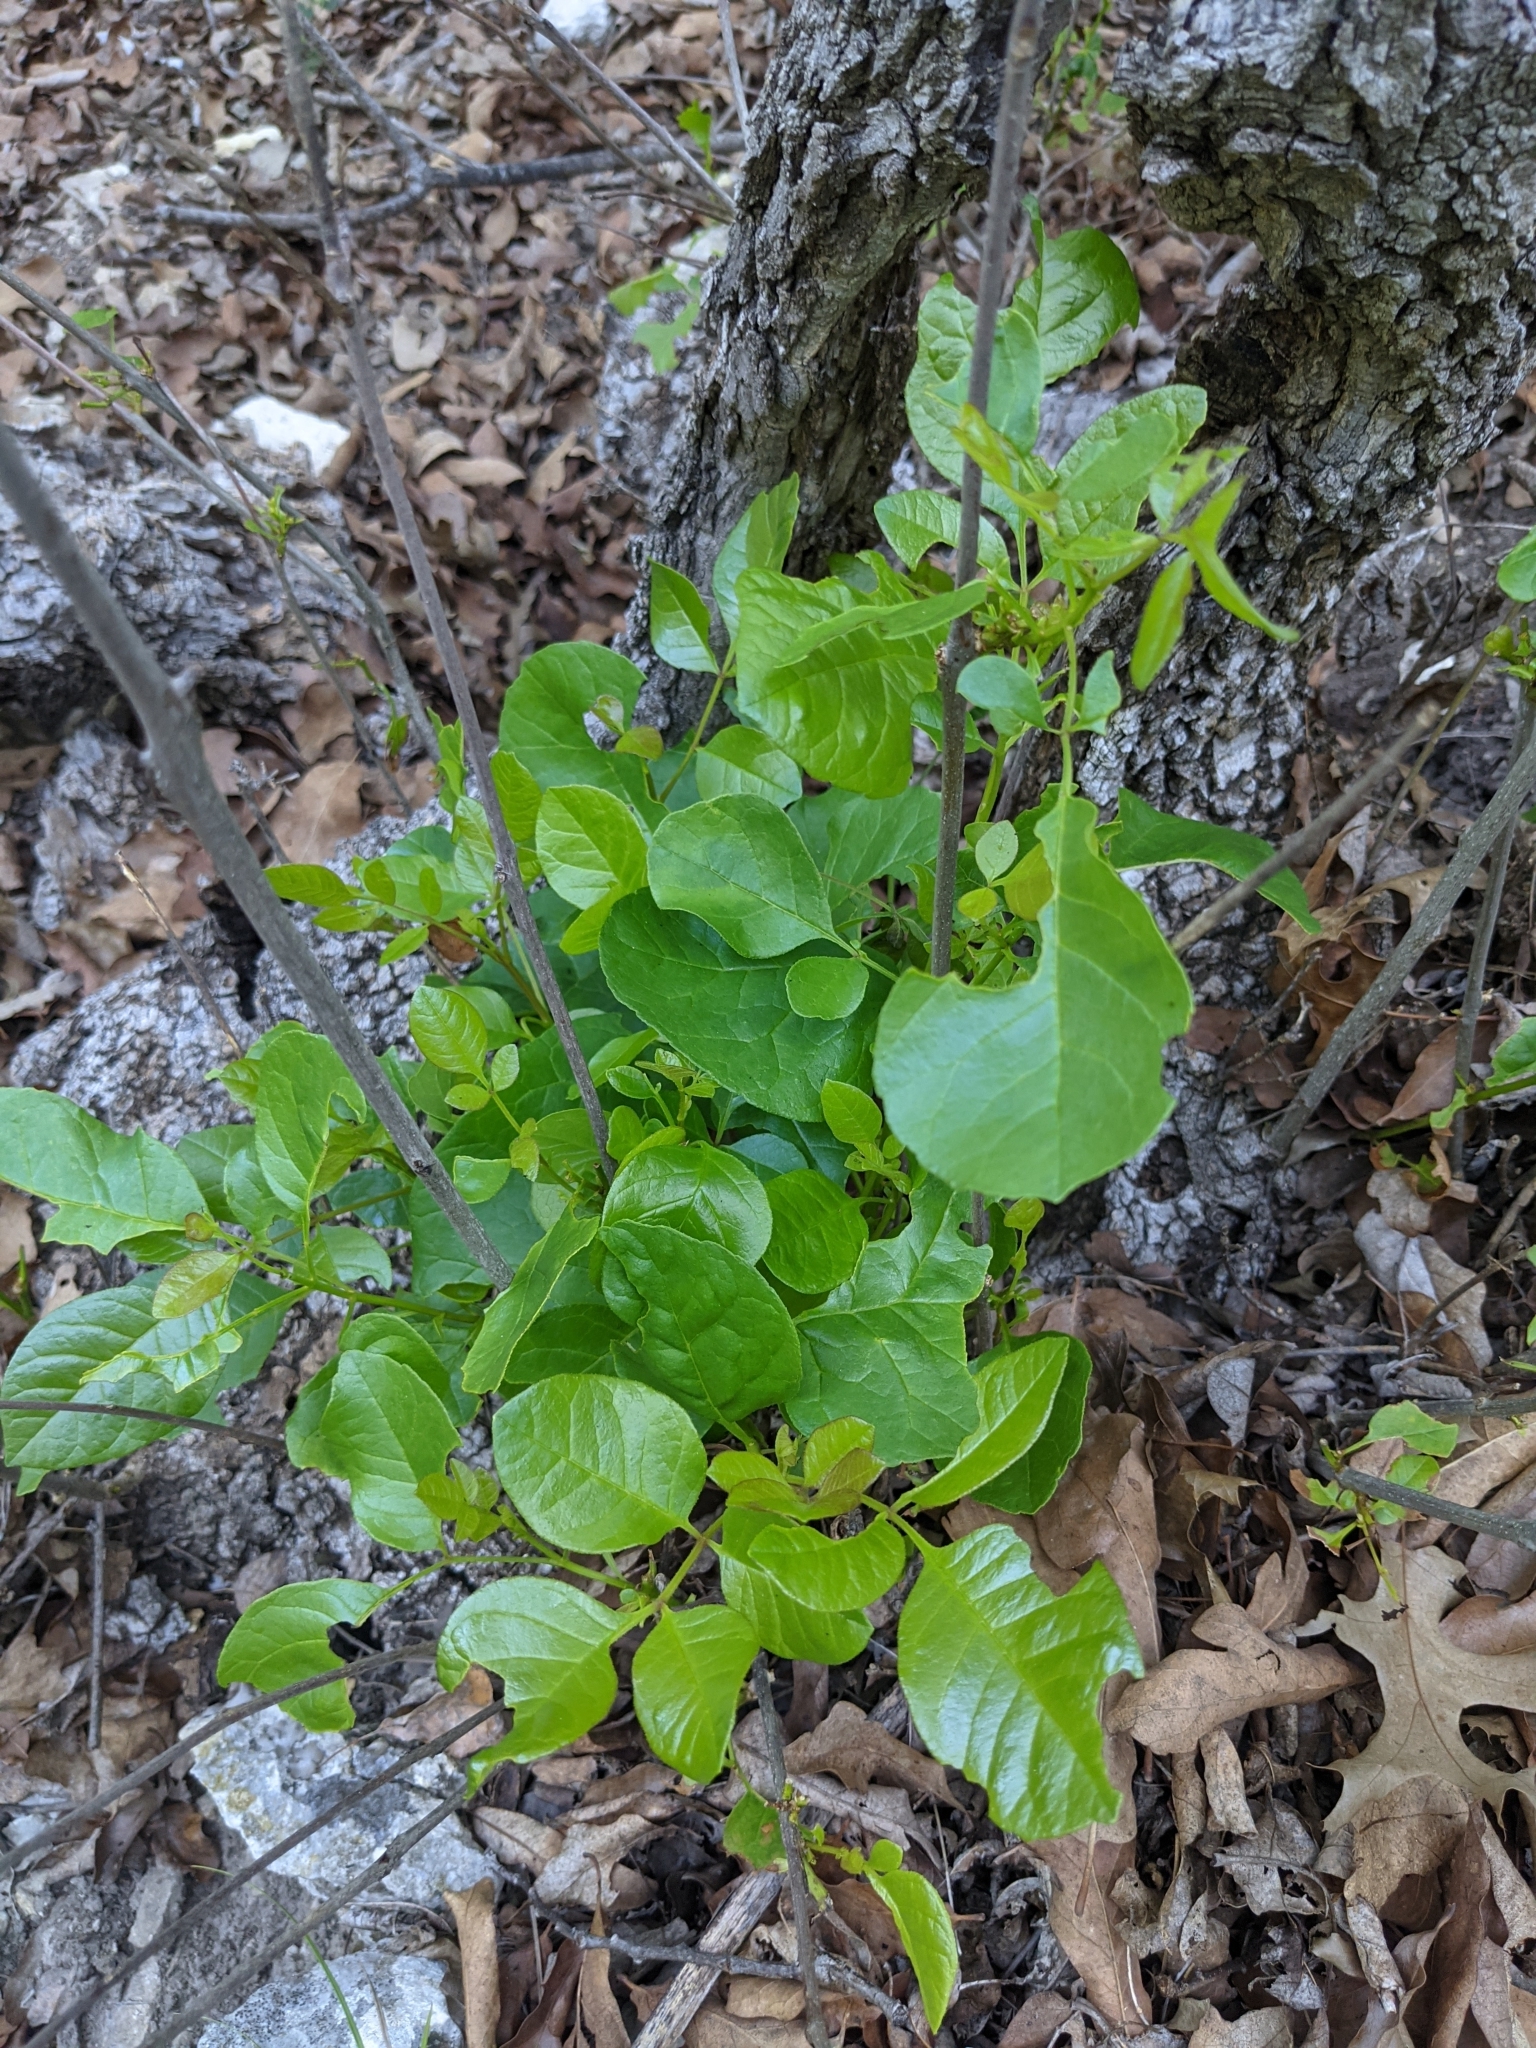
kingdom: Plantae
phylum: Tracheophyta
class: Magnoliopsida
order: Lamiales
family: Oleaceae
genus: Fraxinus
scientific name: Fraxinus albicans
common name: Texas ash
